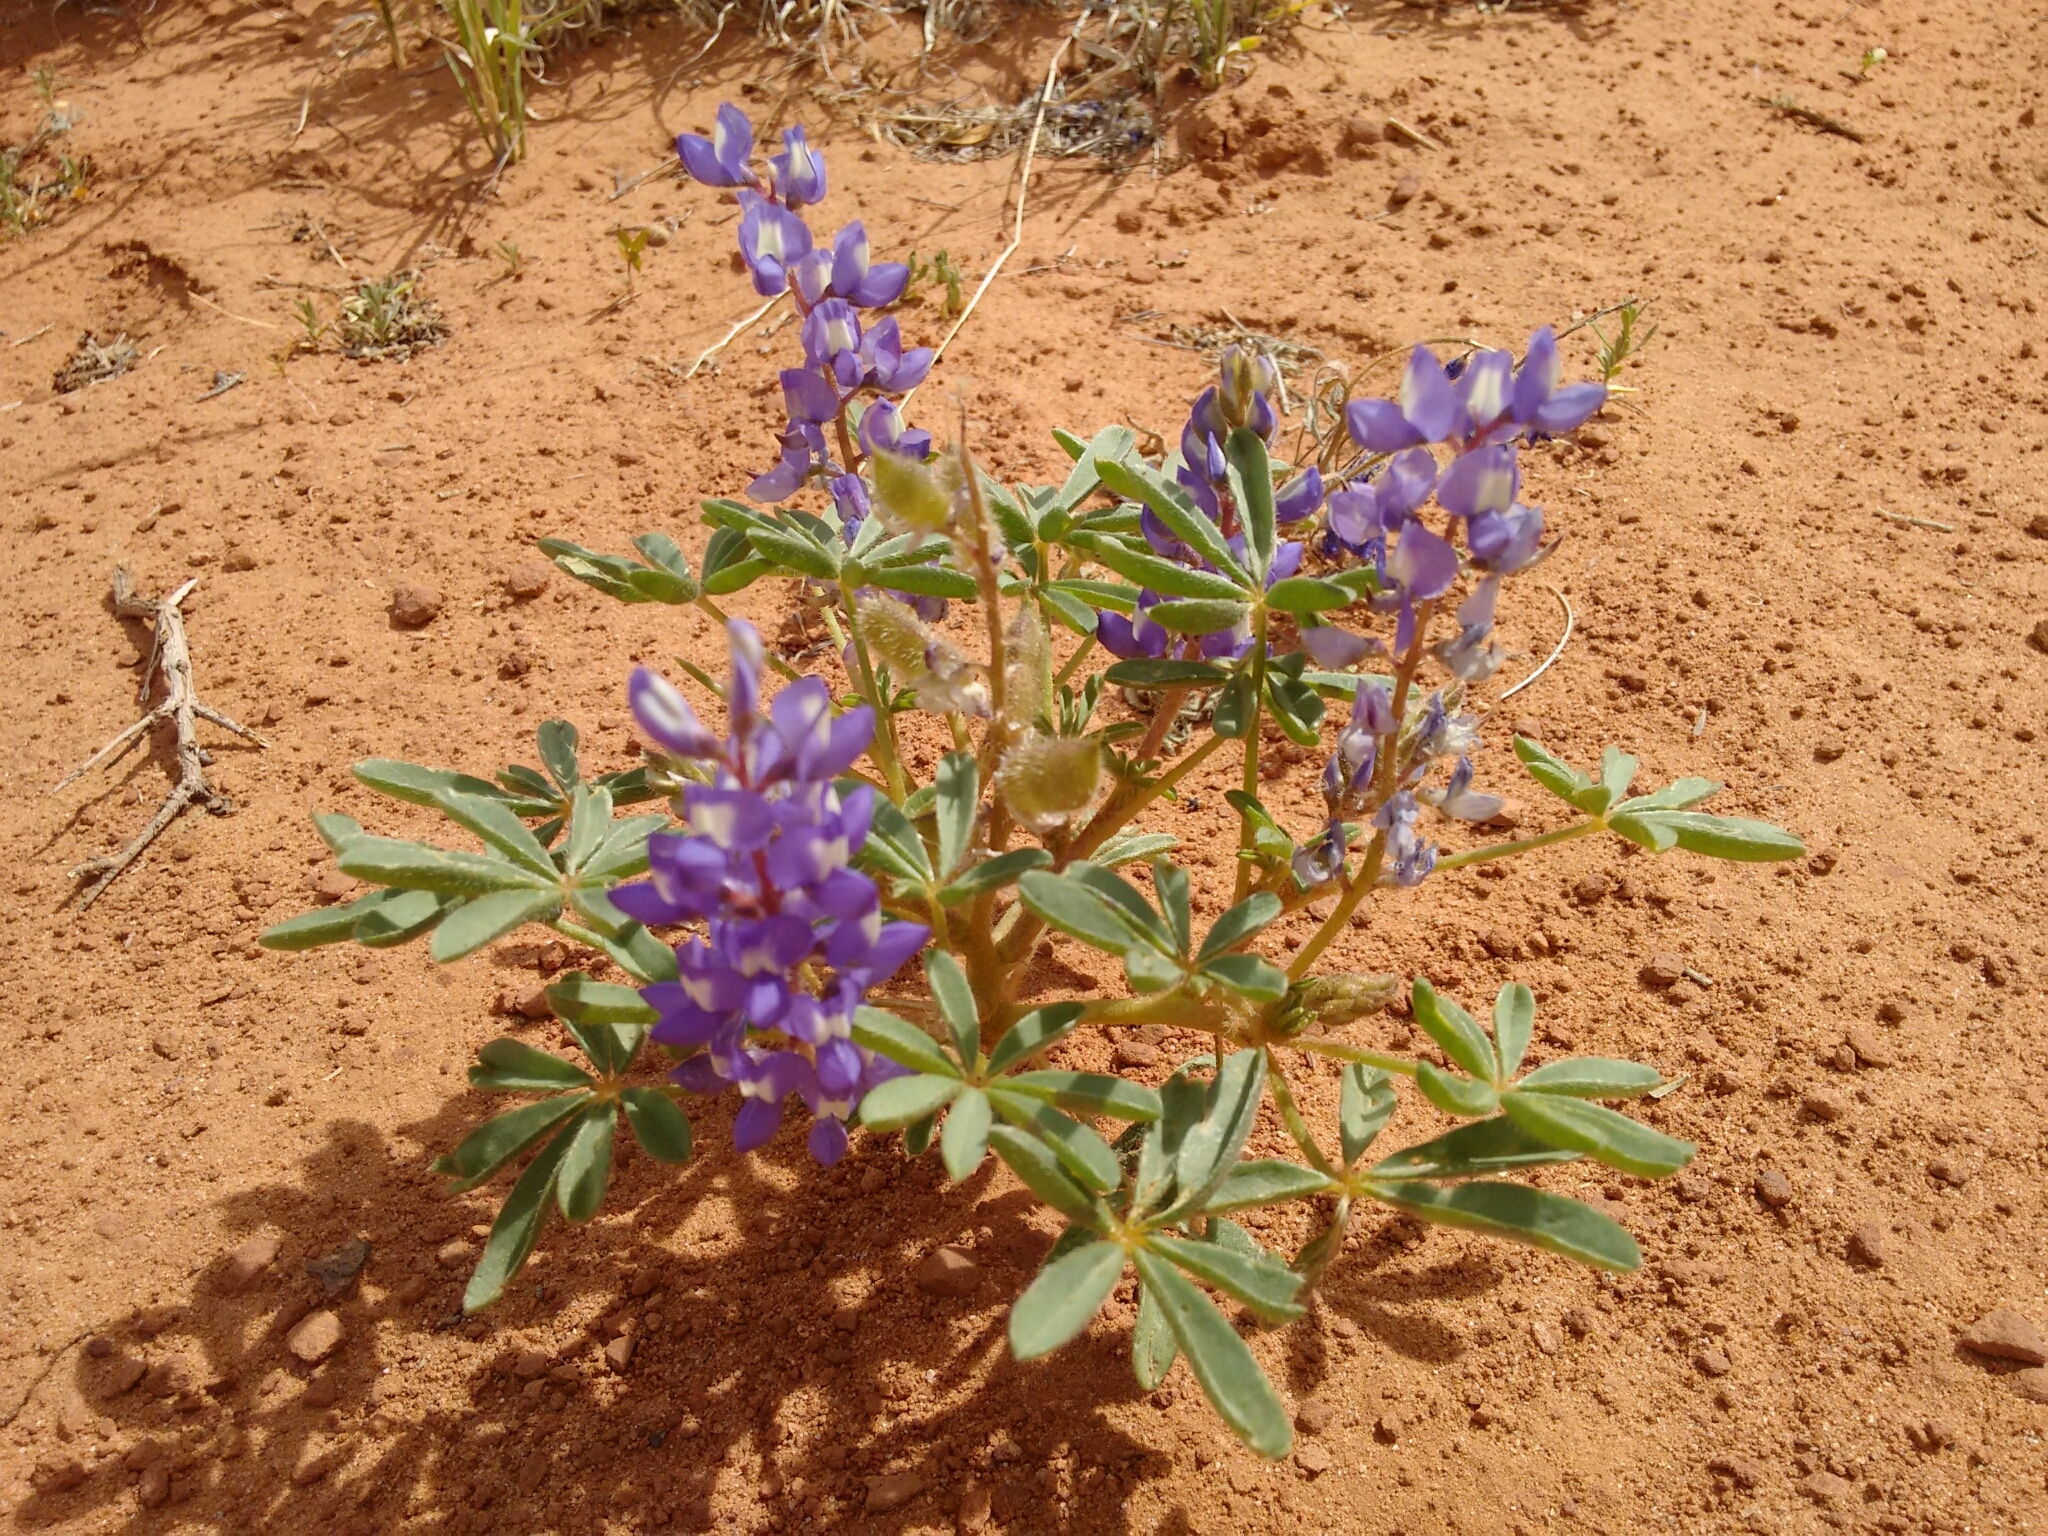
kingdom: Plantae
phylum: Tracheophyta
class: Magnoliopsida
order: Fabales
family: Fabaceae
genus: Lupinus
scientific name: Lupinus pusillus
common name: Low lupine
